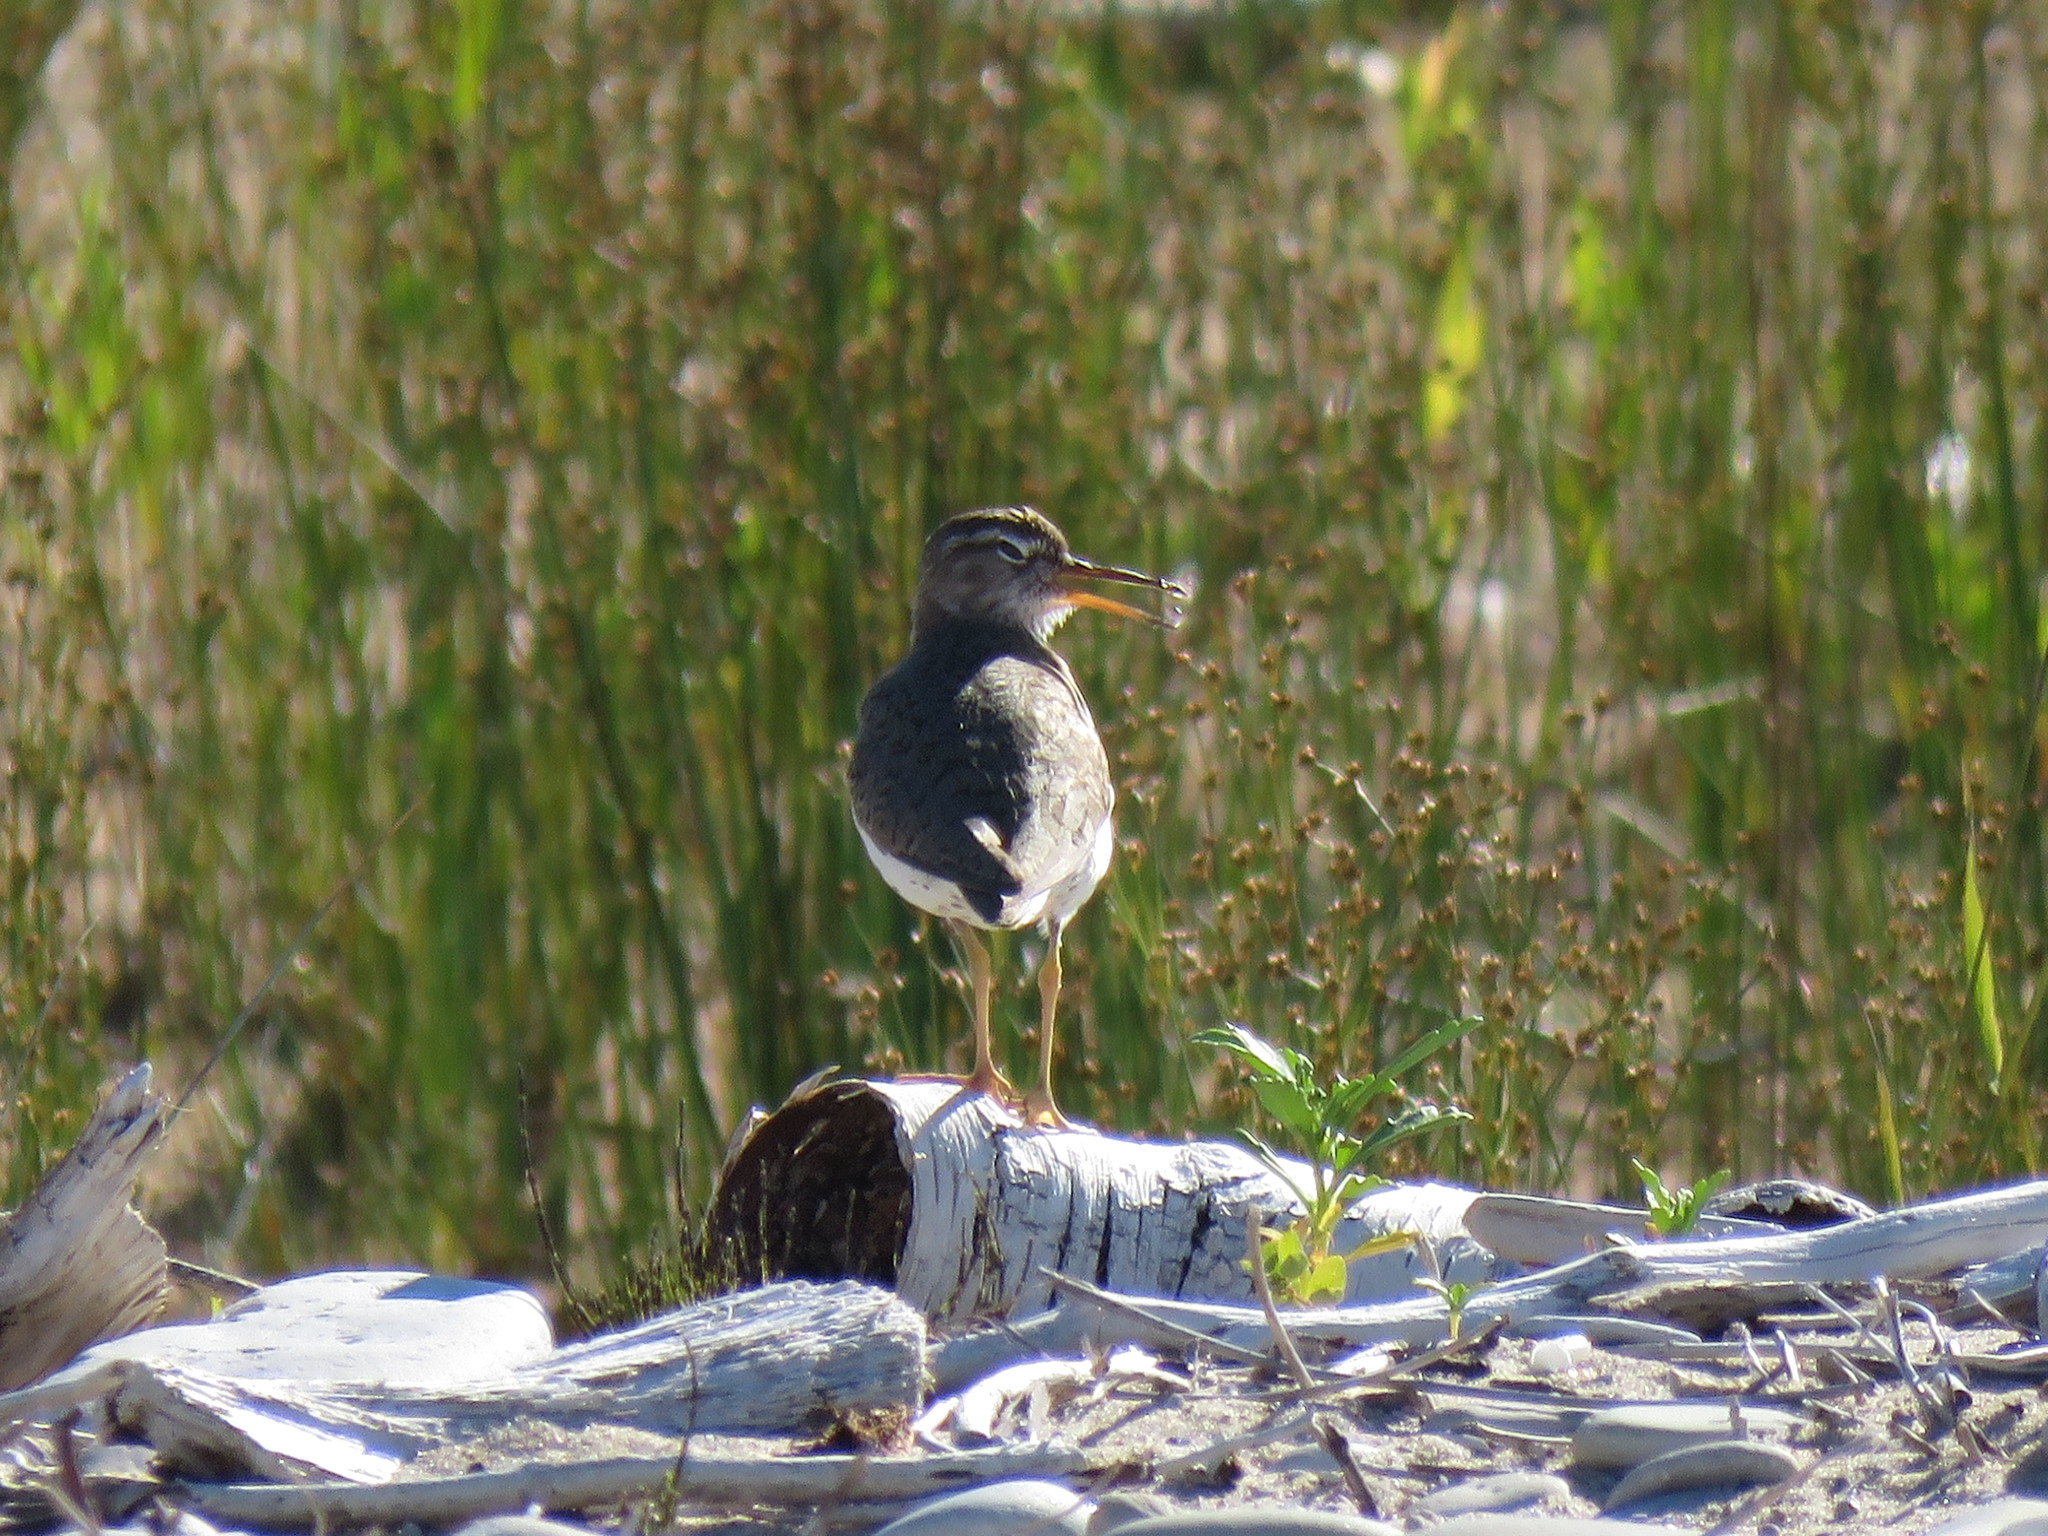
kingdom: Animalia
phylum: Chordata
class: Aves
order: Charadriiformes
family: Scolopacidae
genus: Actitis
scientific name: Actitis macularius
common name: Spotted sandpiper
